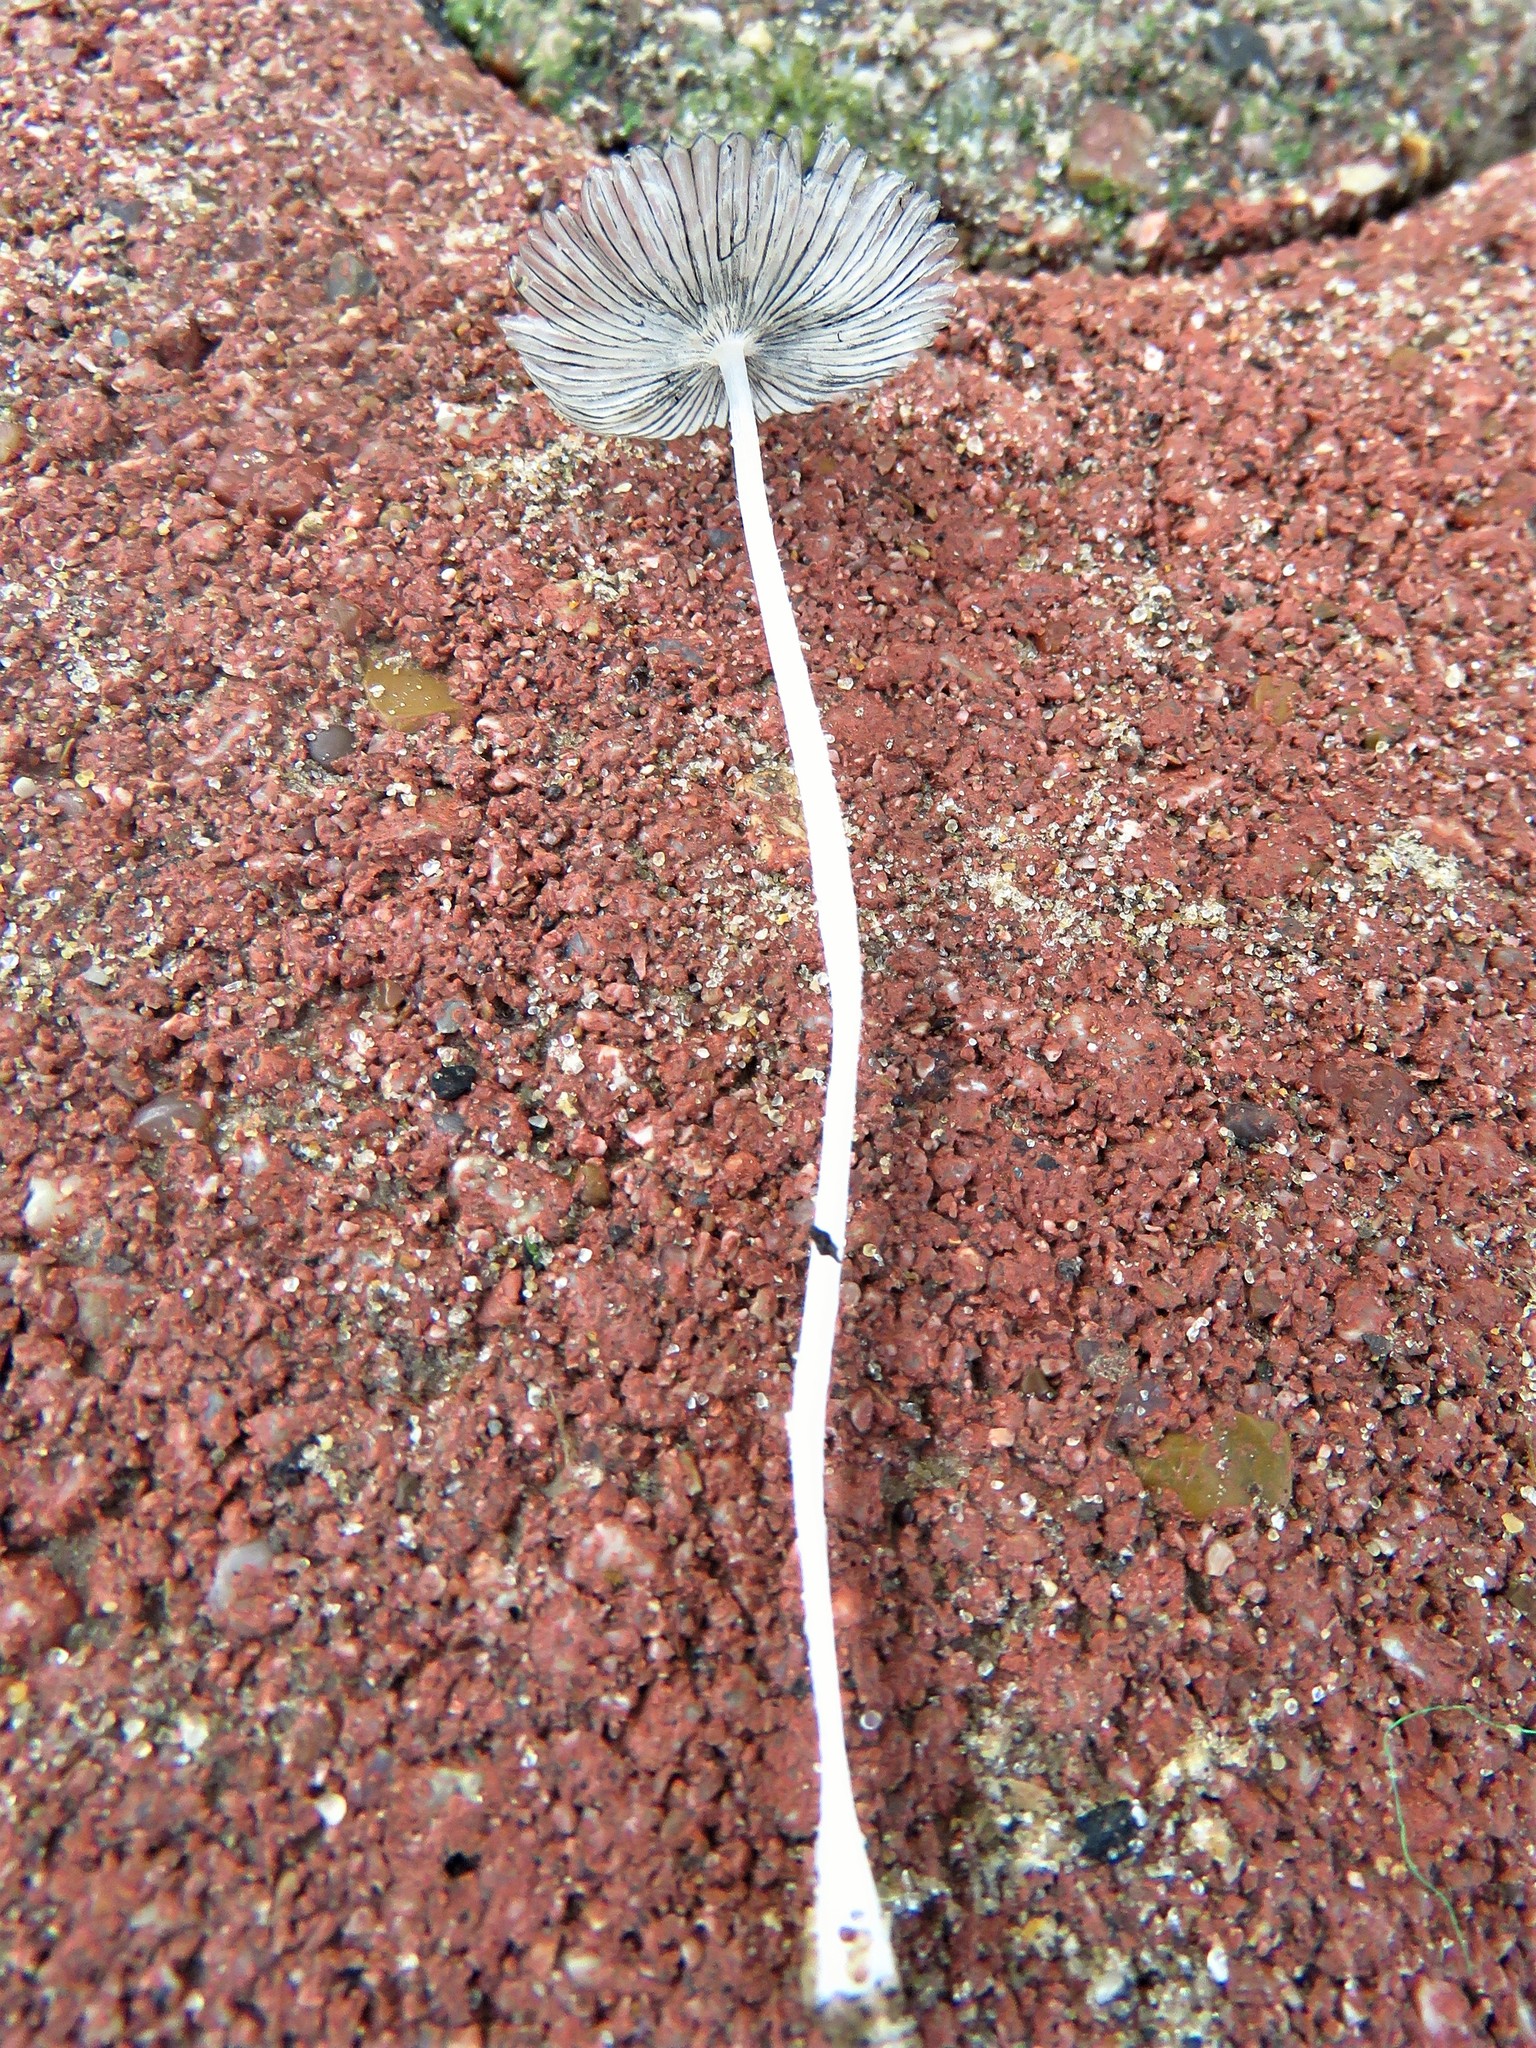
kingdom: Fungi
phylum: Basidiomycota
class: Agaricomycetes
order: Agaricales
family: Psathyrellaceae
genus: Coprinopsis
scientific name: Coprinopsis lagopus
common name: Hare'sfoot inkcap
